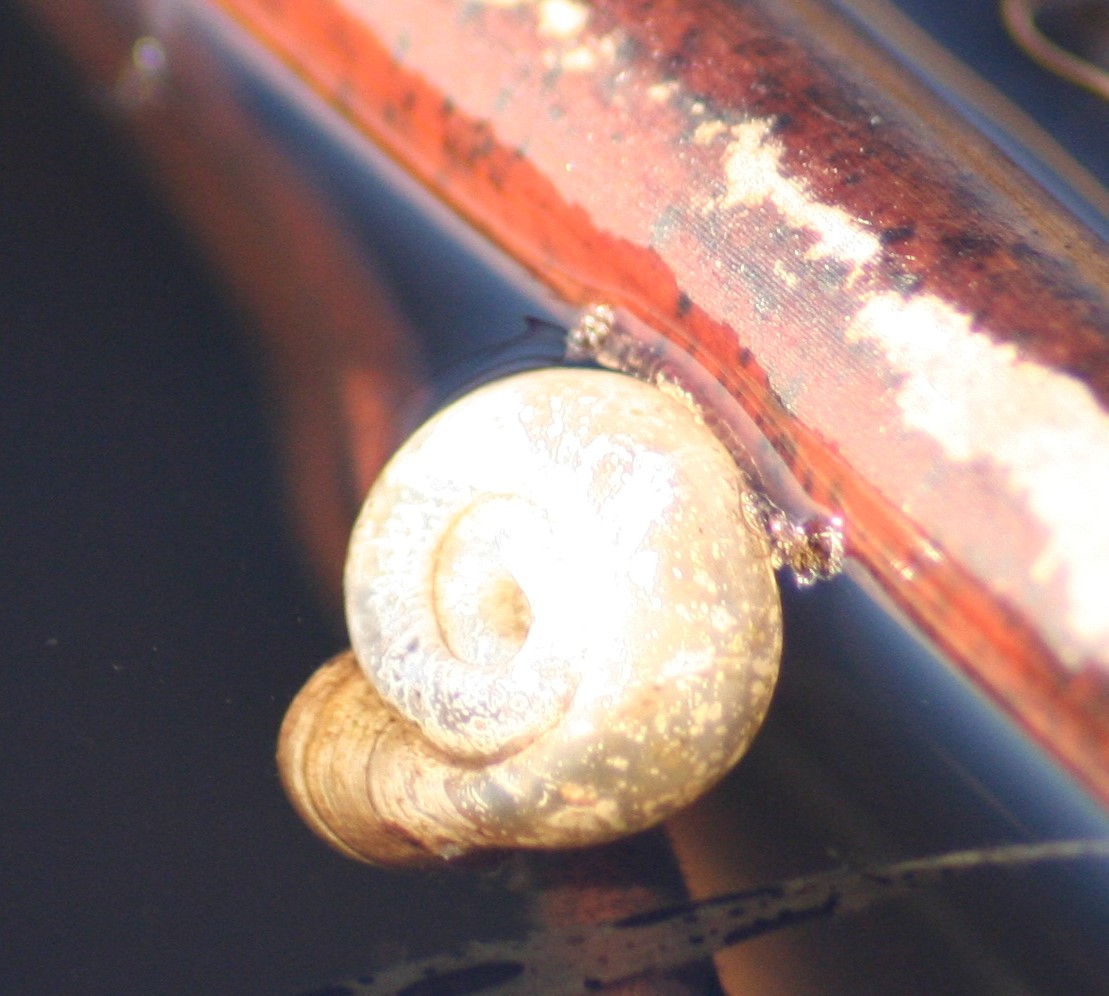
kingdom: Animalia
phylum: Mollusca
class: Gastropoda
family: Planorbidae
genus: Planorbella
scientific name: Planorbella campanulata
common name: Bellmouth ramshorn
